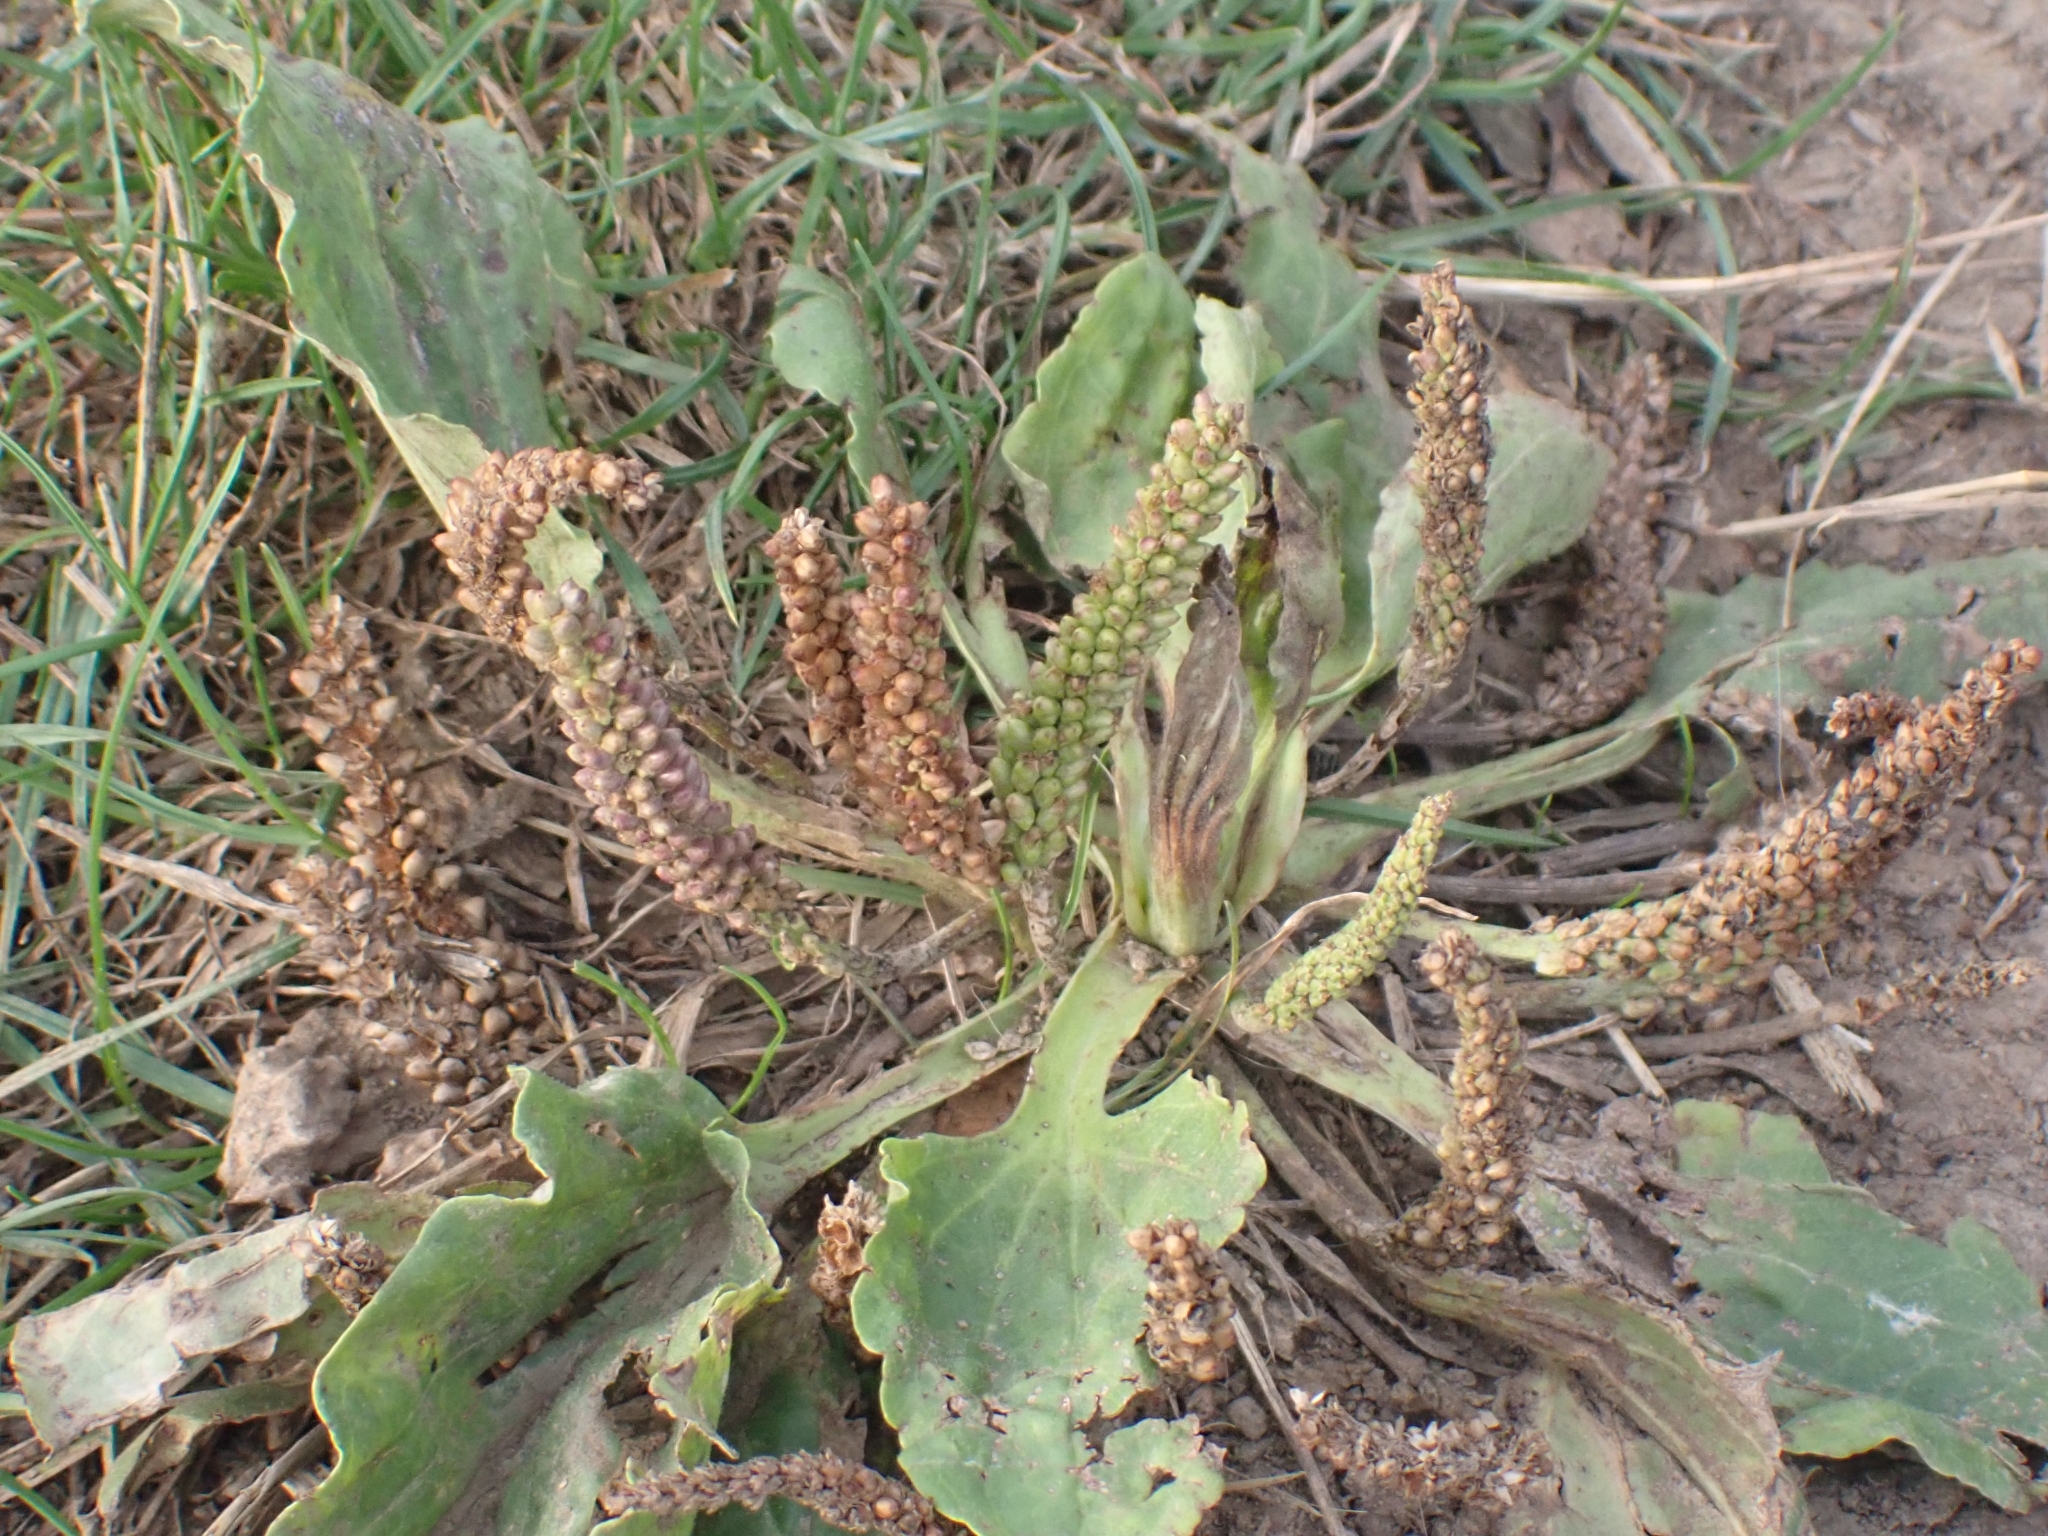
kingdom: Plantae
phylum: Tracheophyta
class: Magnoliopsida
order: Lamiales
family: Plantaginaceae
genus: Plantago
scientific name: Plantago major
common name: Common plantain
